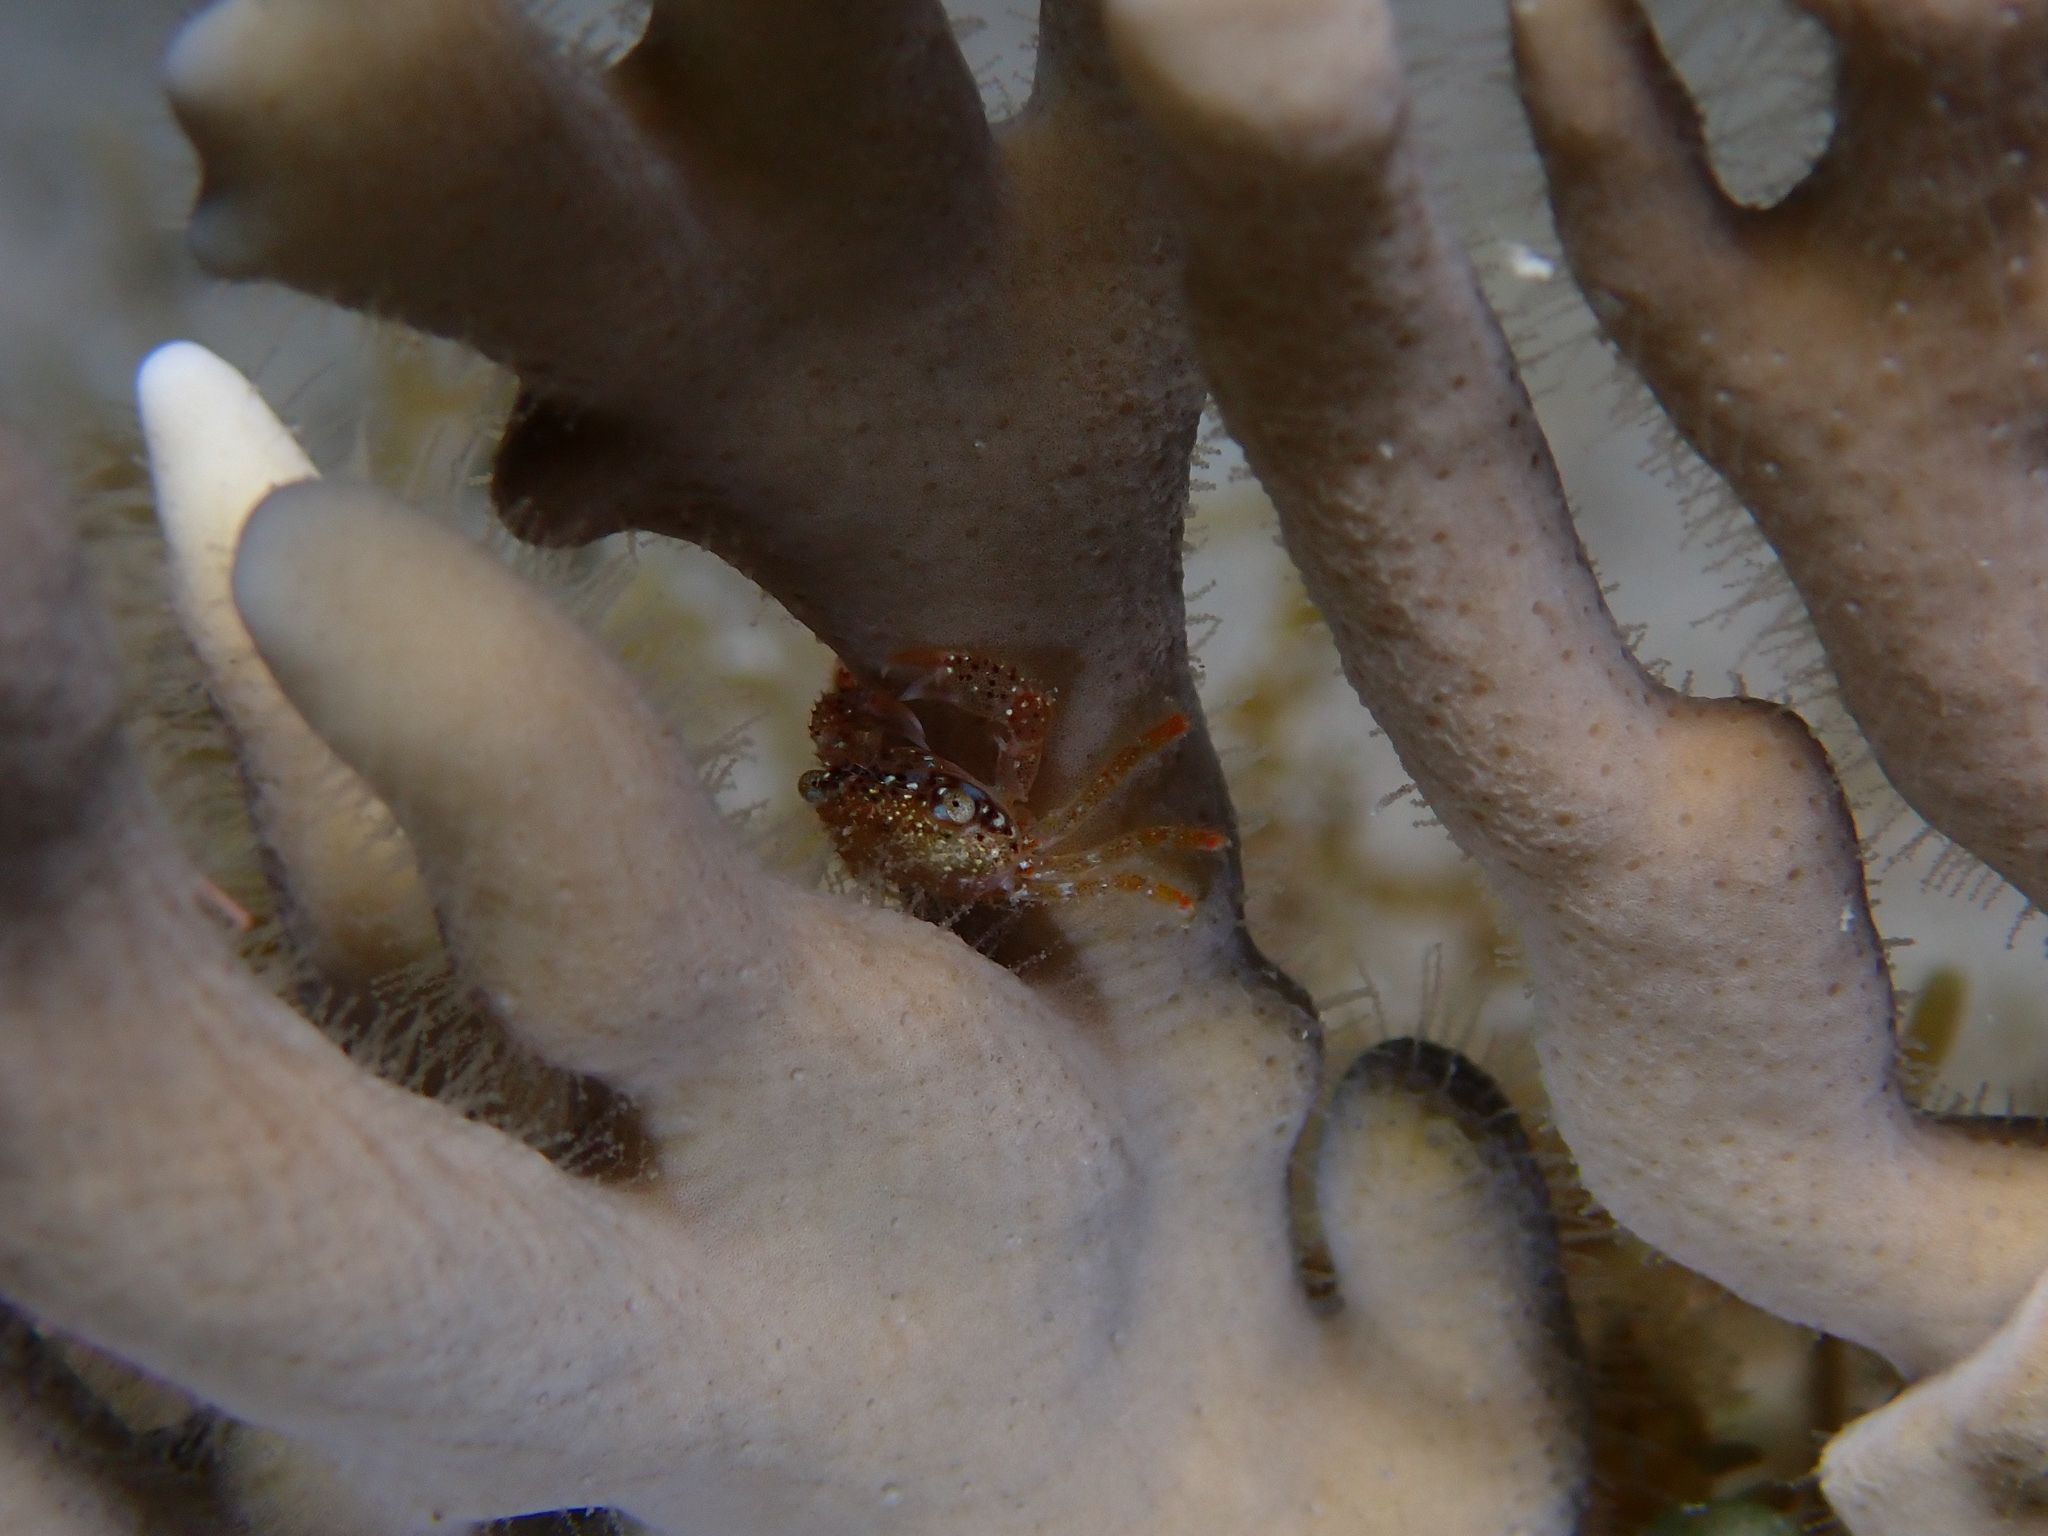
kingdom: Animalia
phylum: Arthropoda
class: Malacostraca
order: Decapoda
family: Domeciidae
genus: Domecia
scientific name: Domecia acanthophora
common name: Elkhorn coral crab
